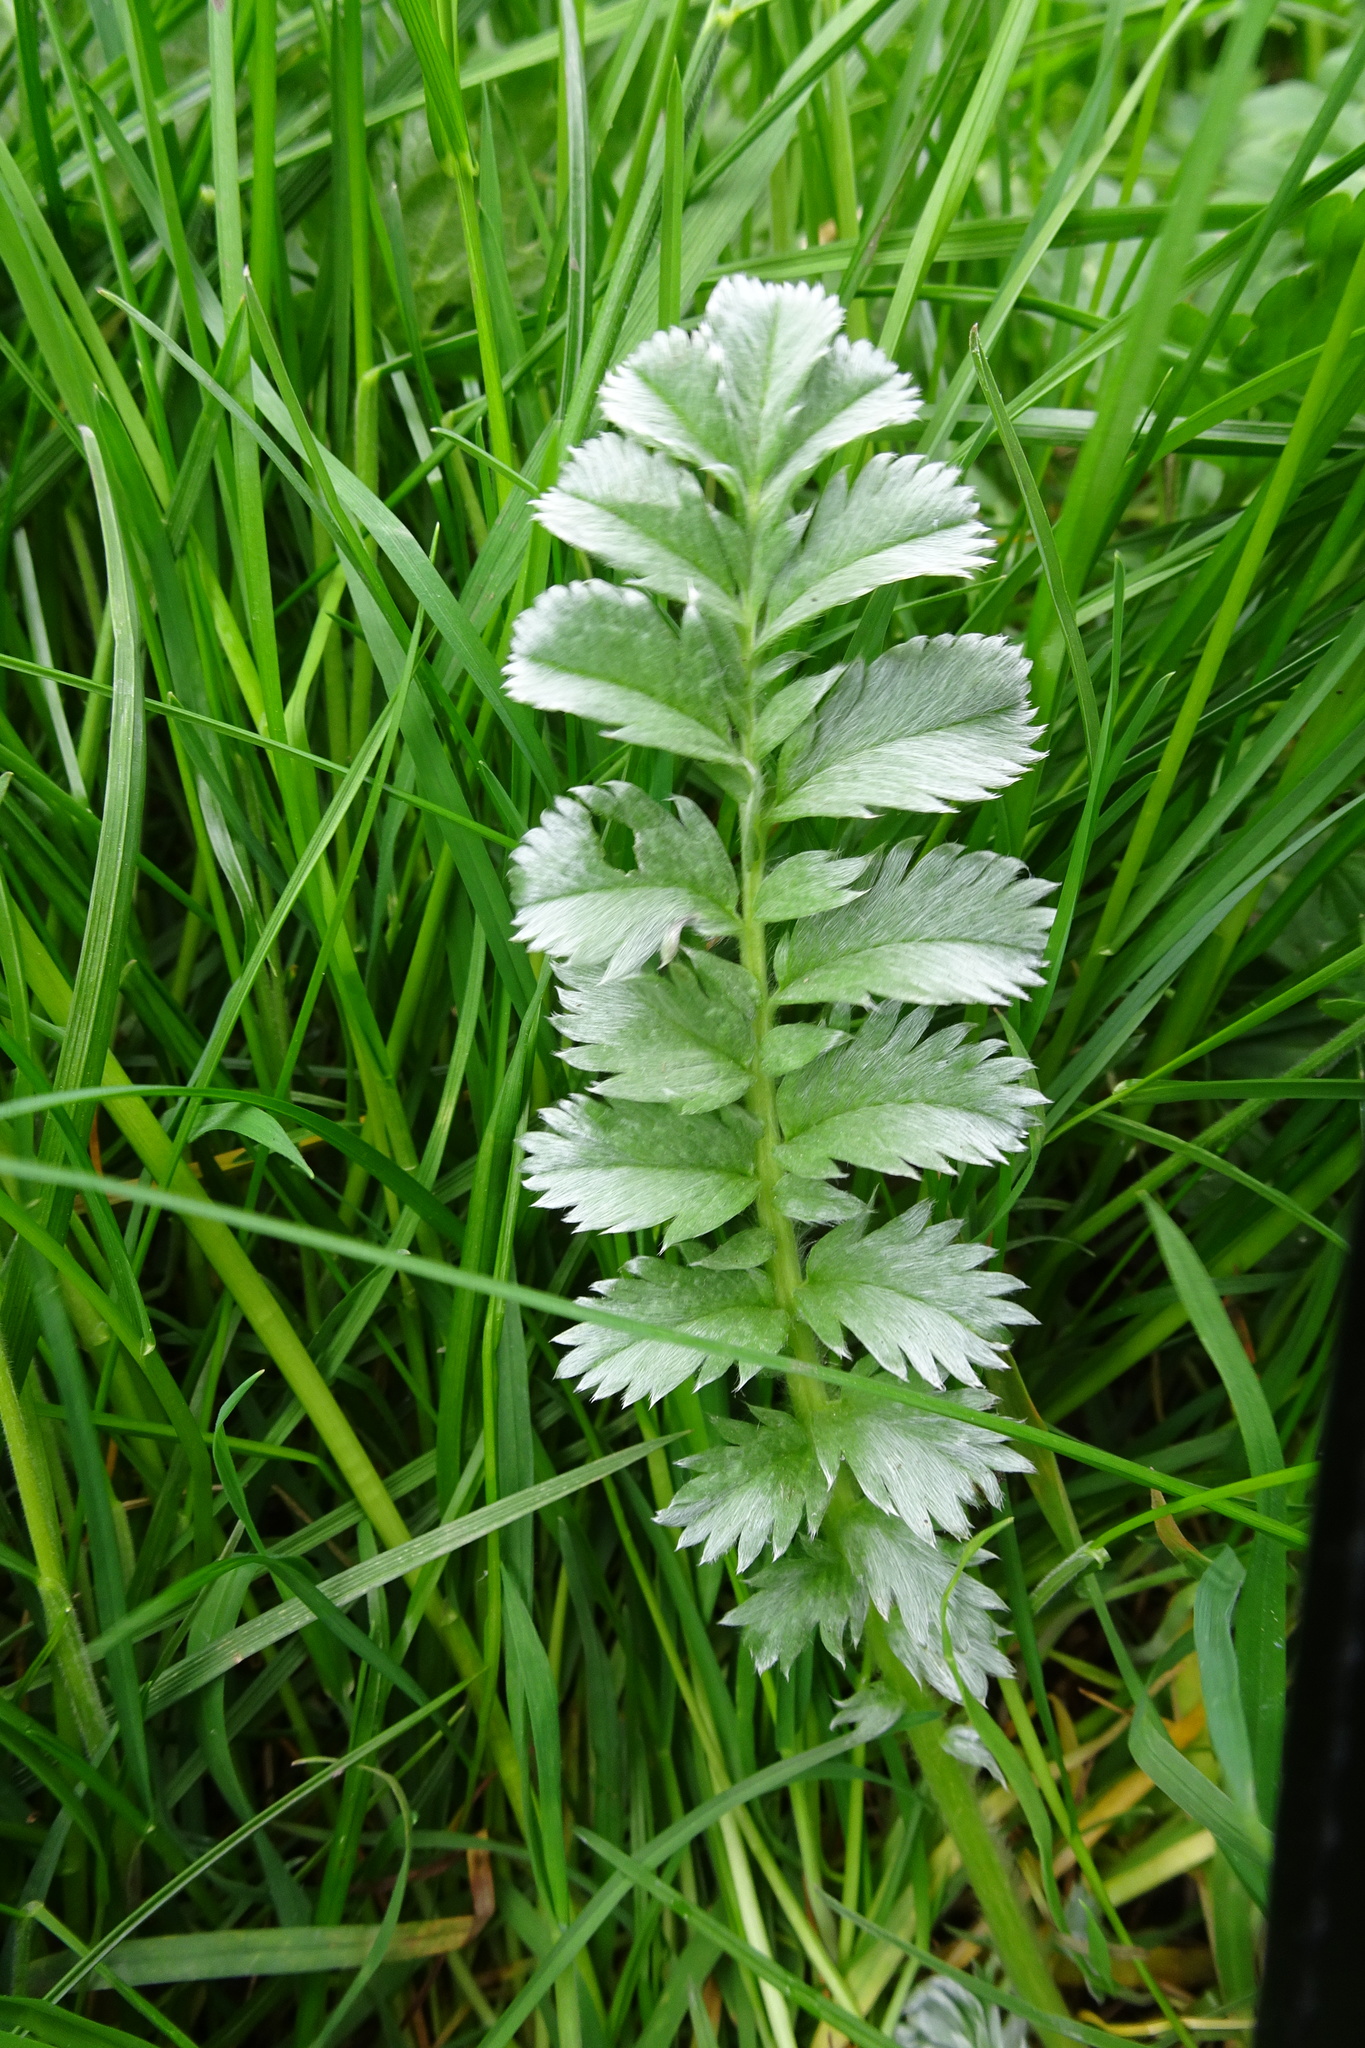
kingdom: Plantae
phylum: Tracheophyta
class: Magnoliopsida
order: Rosales
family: Rosaceae
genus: Argentina
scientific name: Argentina anserina
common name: Common silverweed
